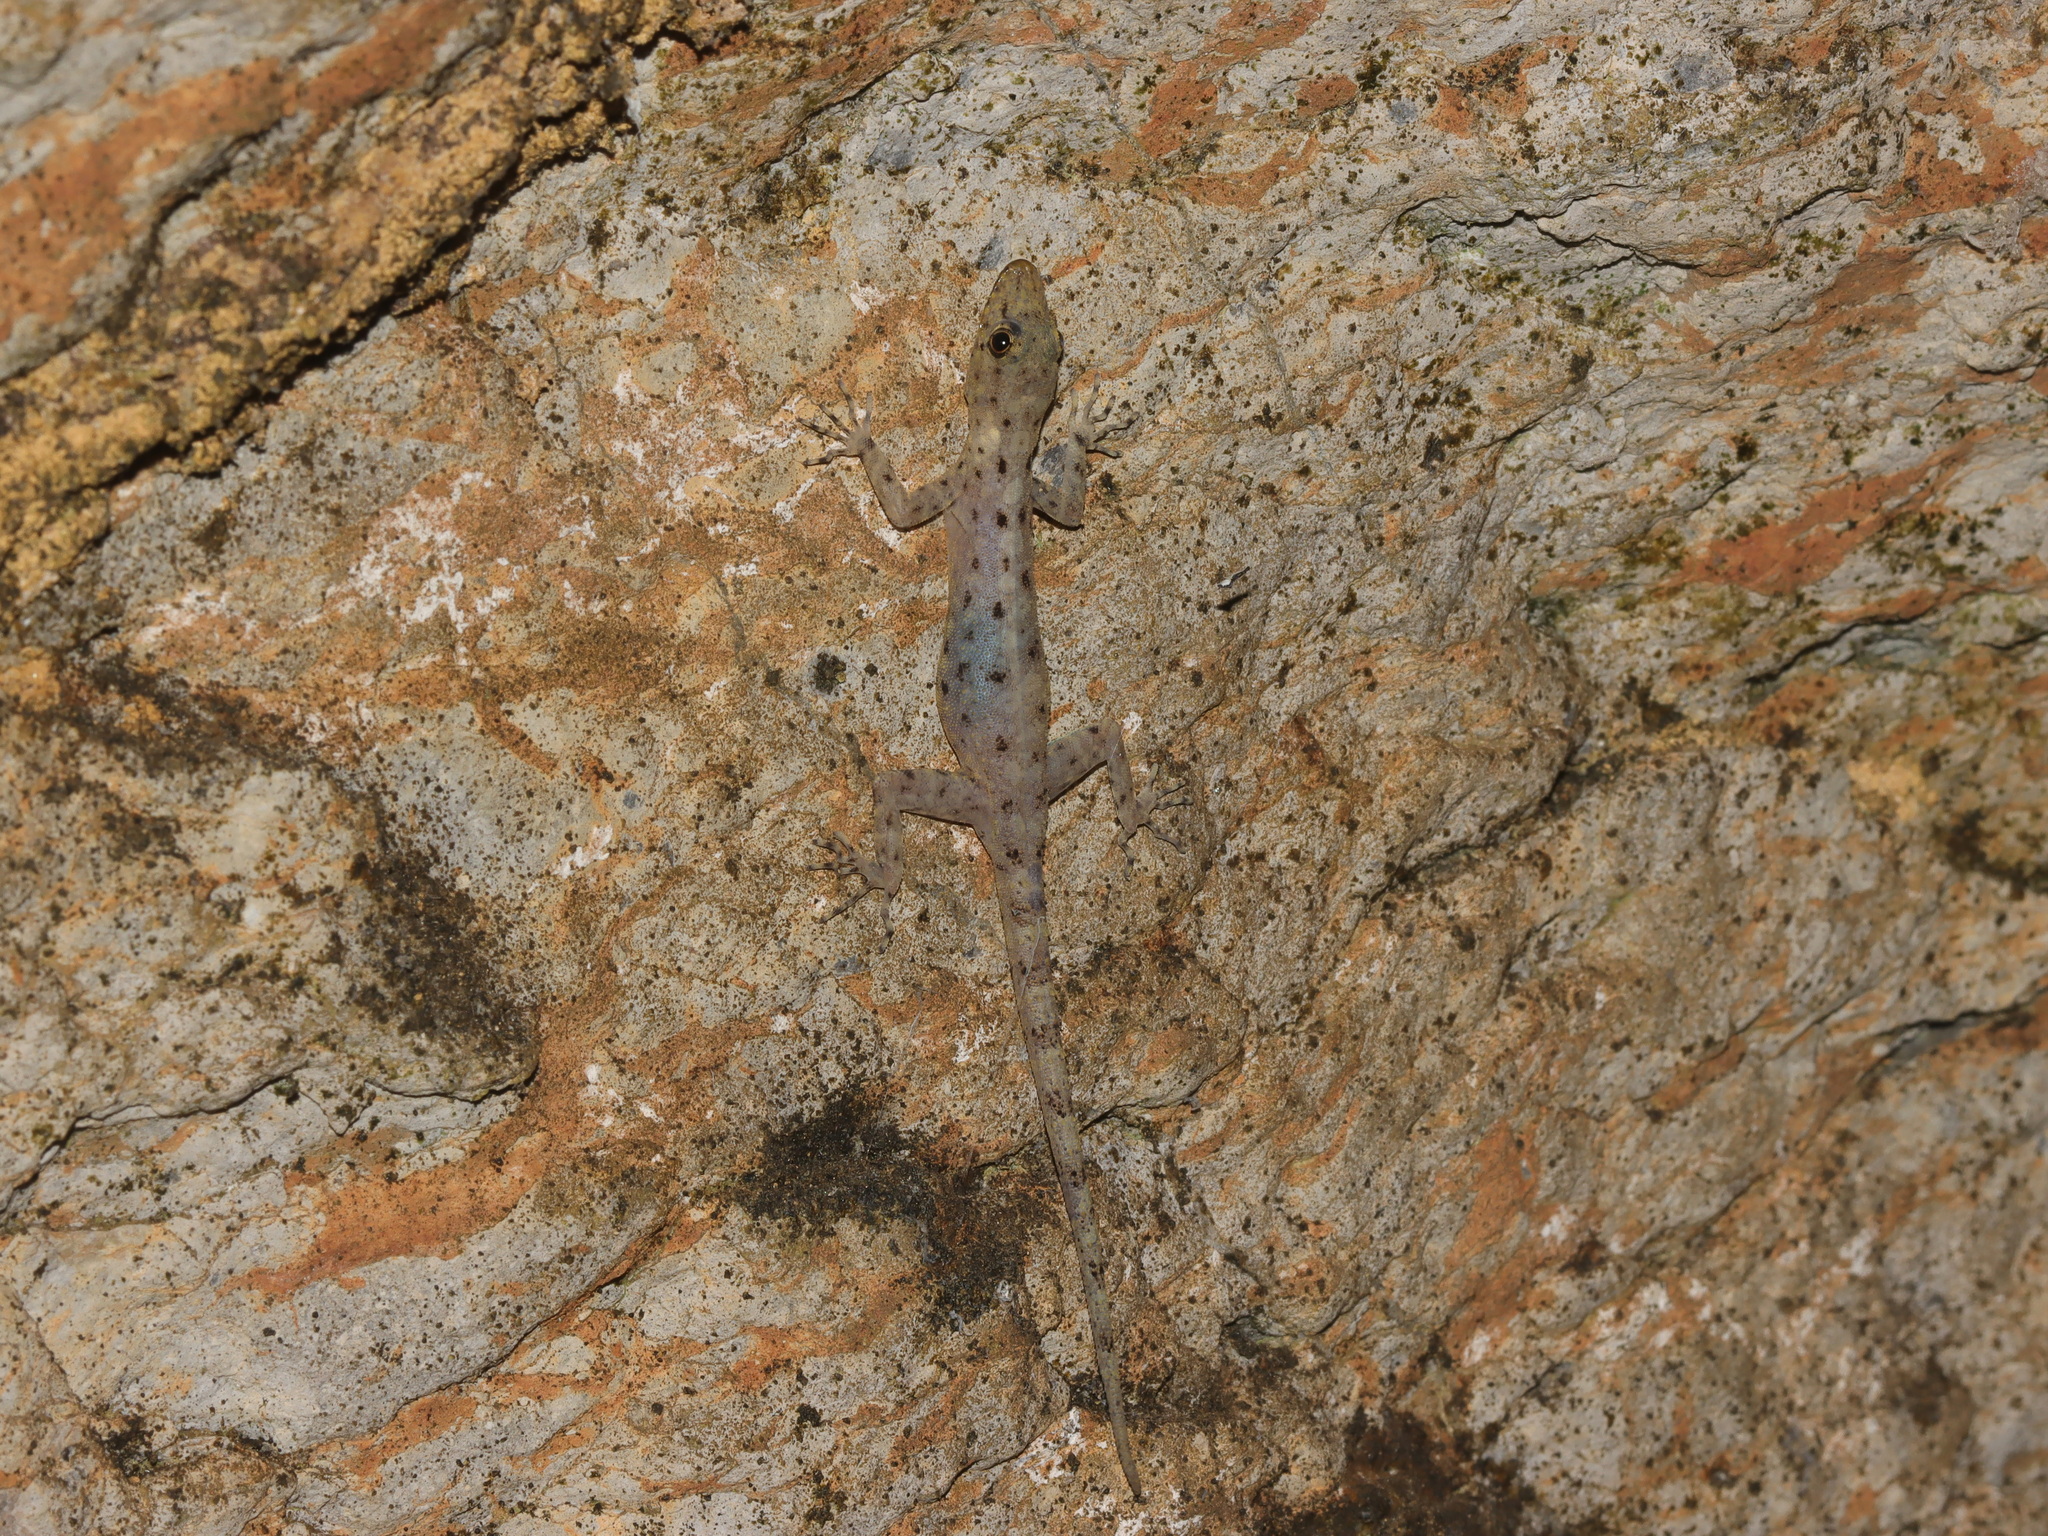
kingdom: Animalia
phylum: Chordata
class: Squamata
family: Gekkonidae
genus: Cnemaspis
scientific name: Cnemaspis tarutaoensis
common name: Tarutao rock gecko
